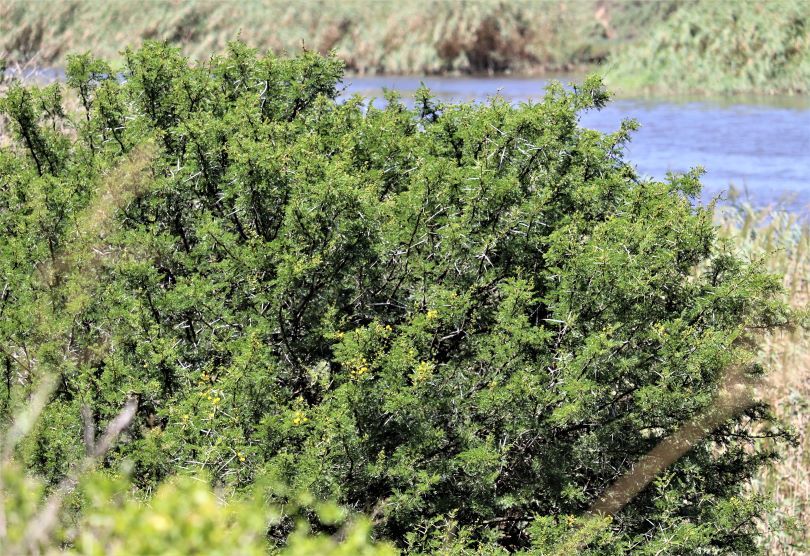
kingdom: Plantae
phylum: Tracheophyta
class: Magnoliopsida
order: Fabales
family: Fabaceae
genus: Vachellia
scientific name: Vachellia karroo
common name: Sweet thorn
